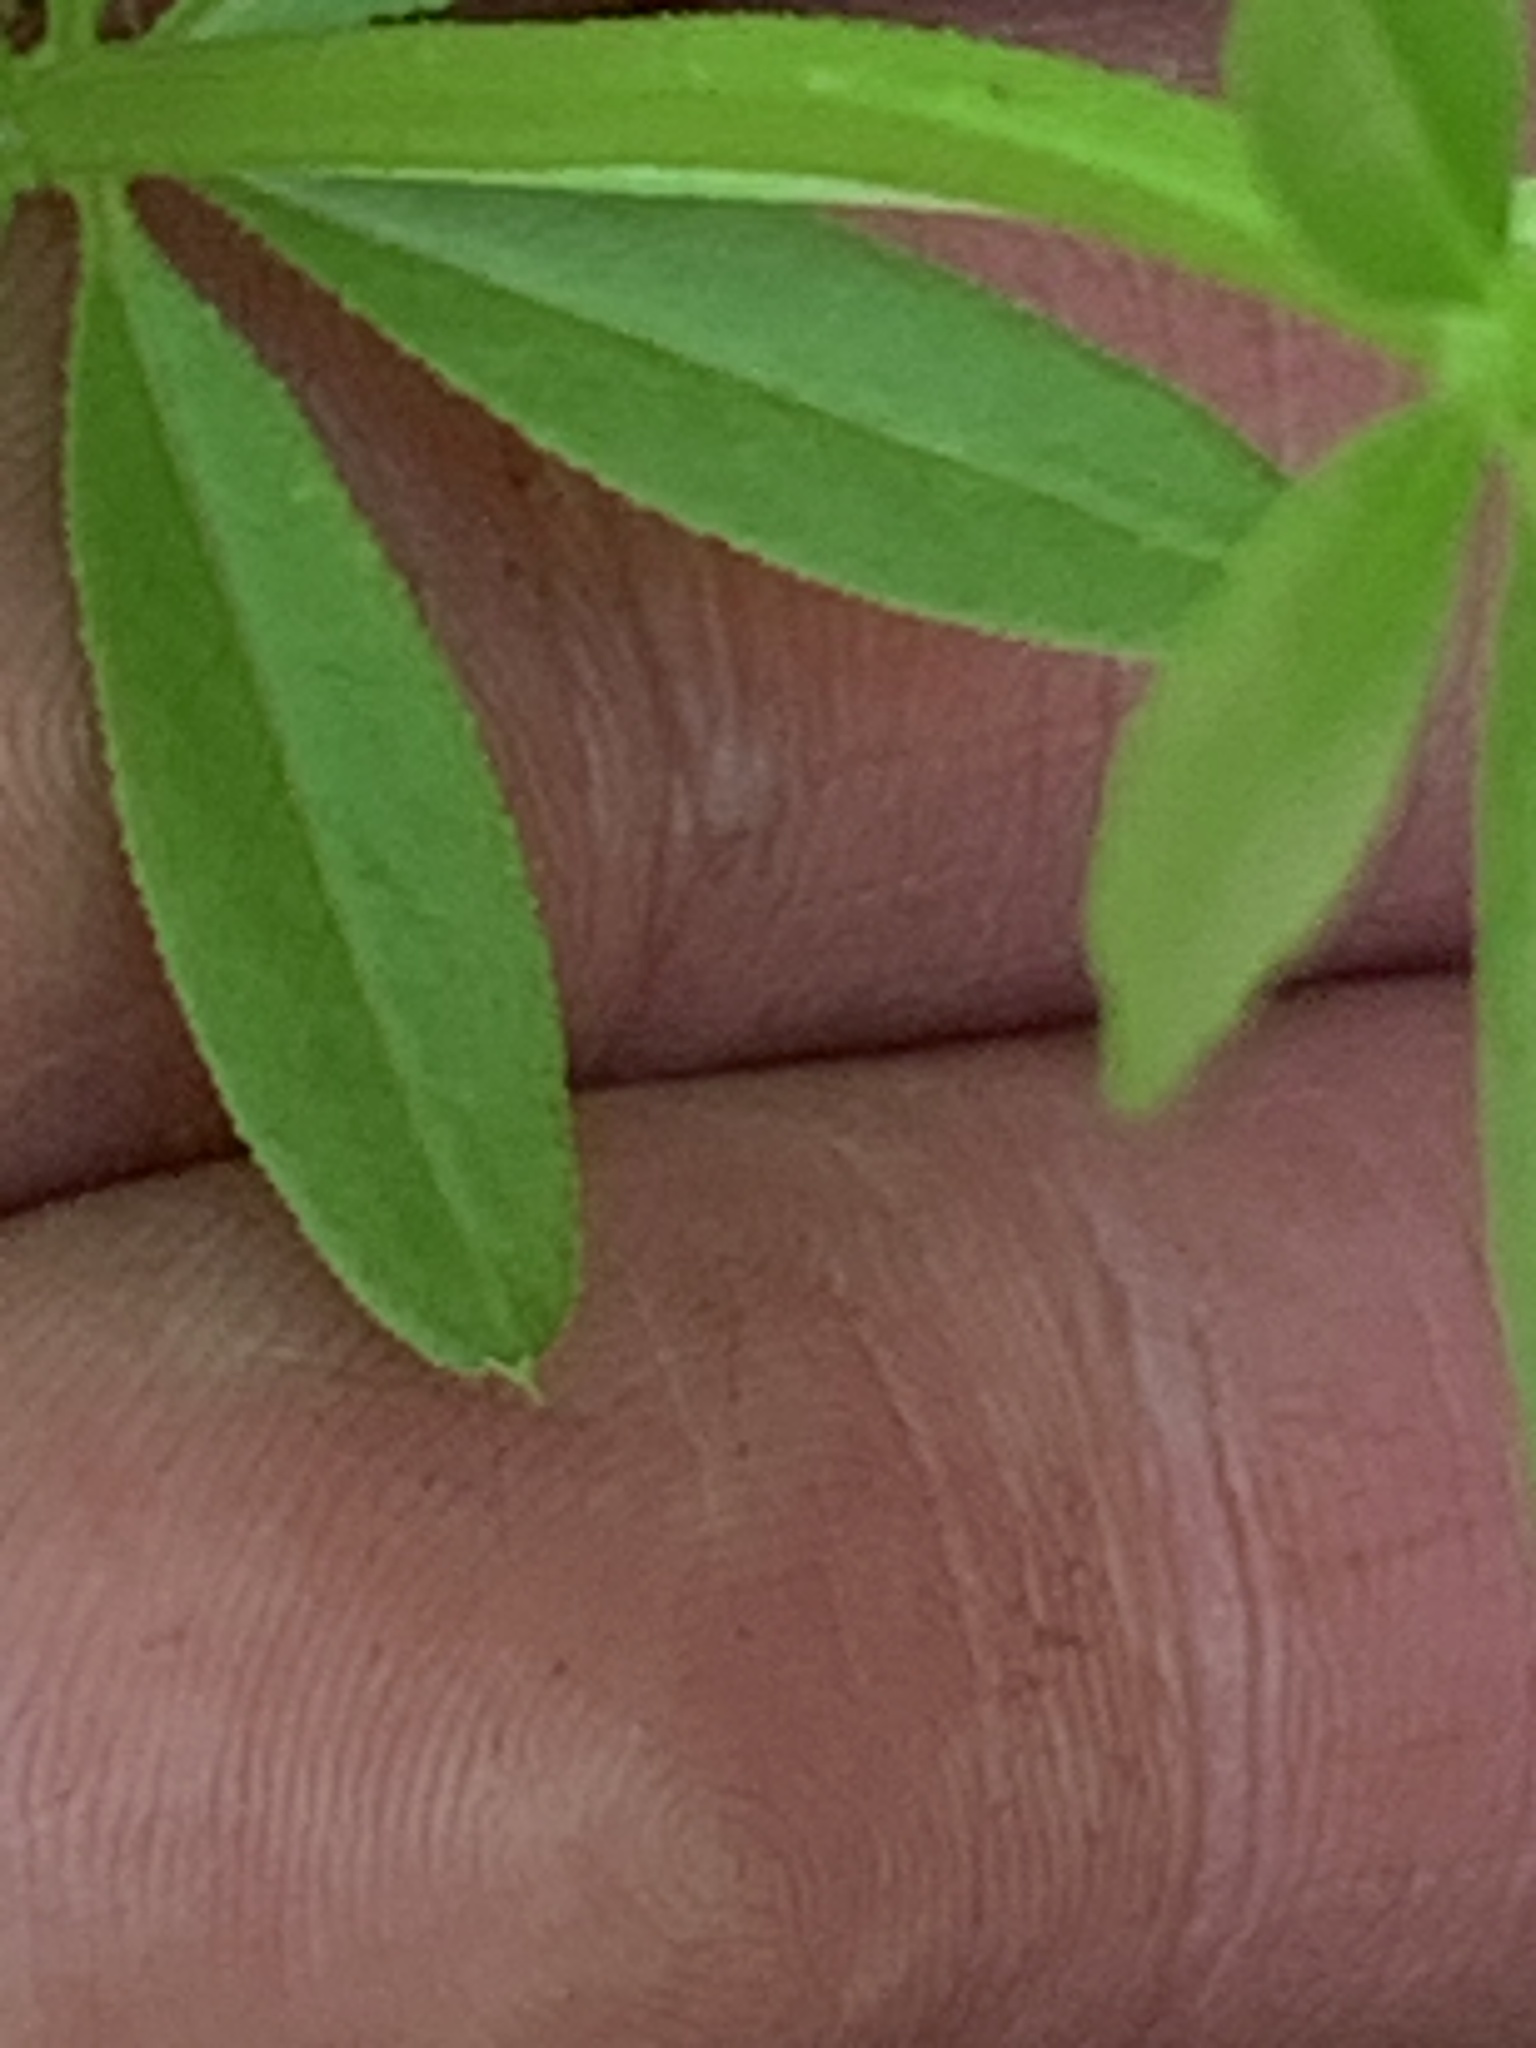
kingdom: Plantae
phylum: Tracheophyta
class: Magnoliopsida
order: Gentianales
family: Rubiaceae
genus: Galium
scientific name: Galium asprellum
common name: Rough bedstraw
